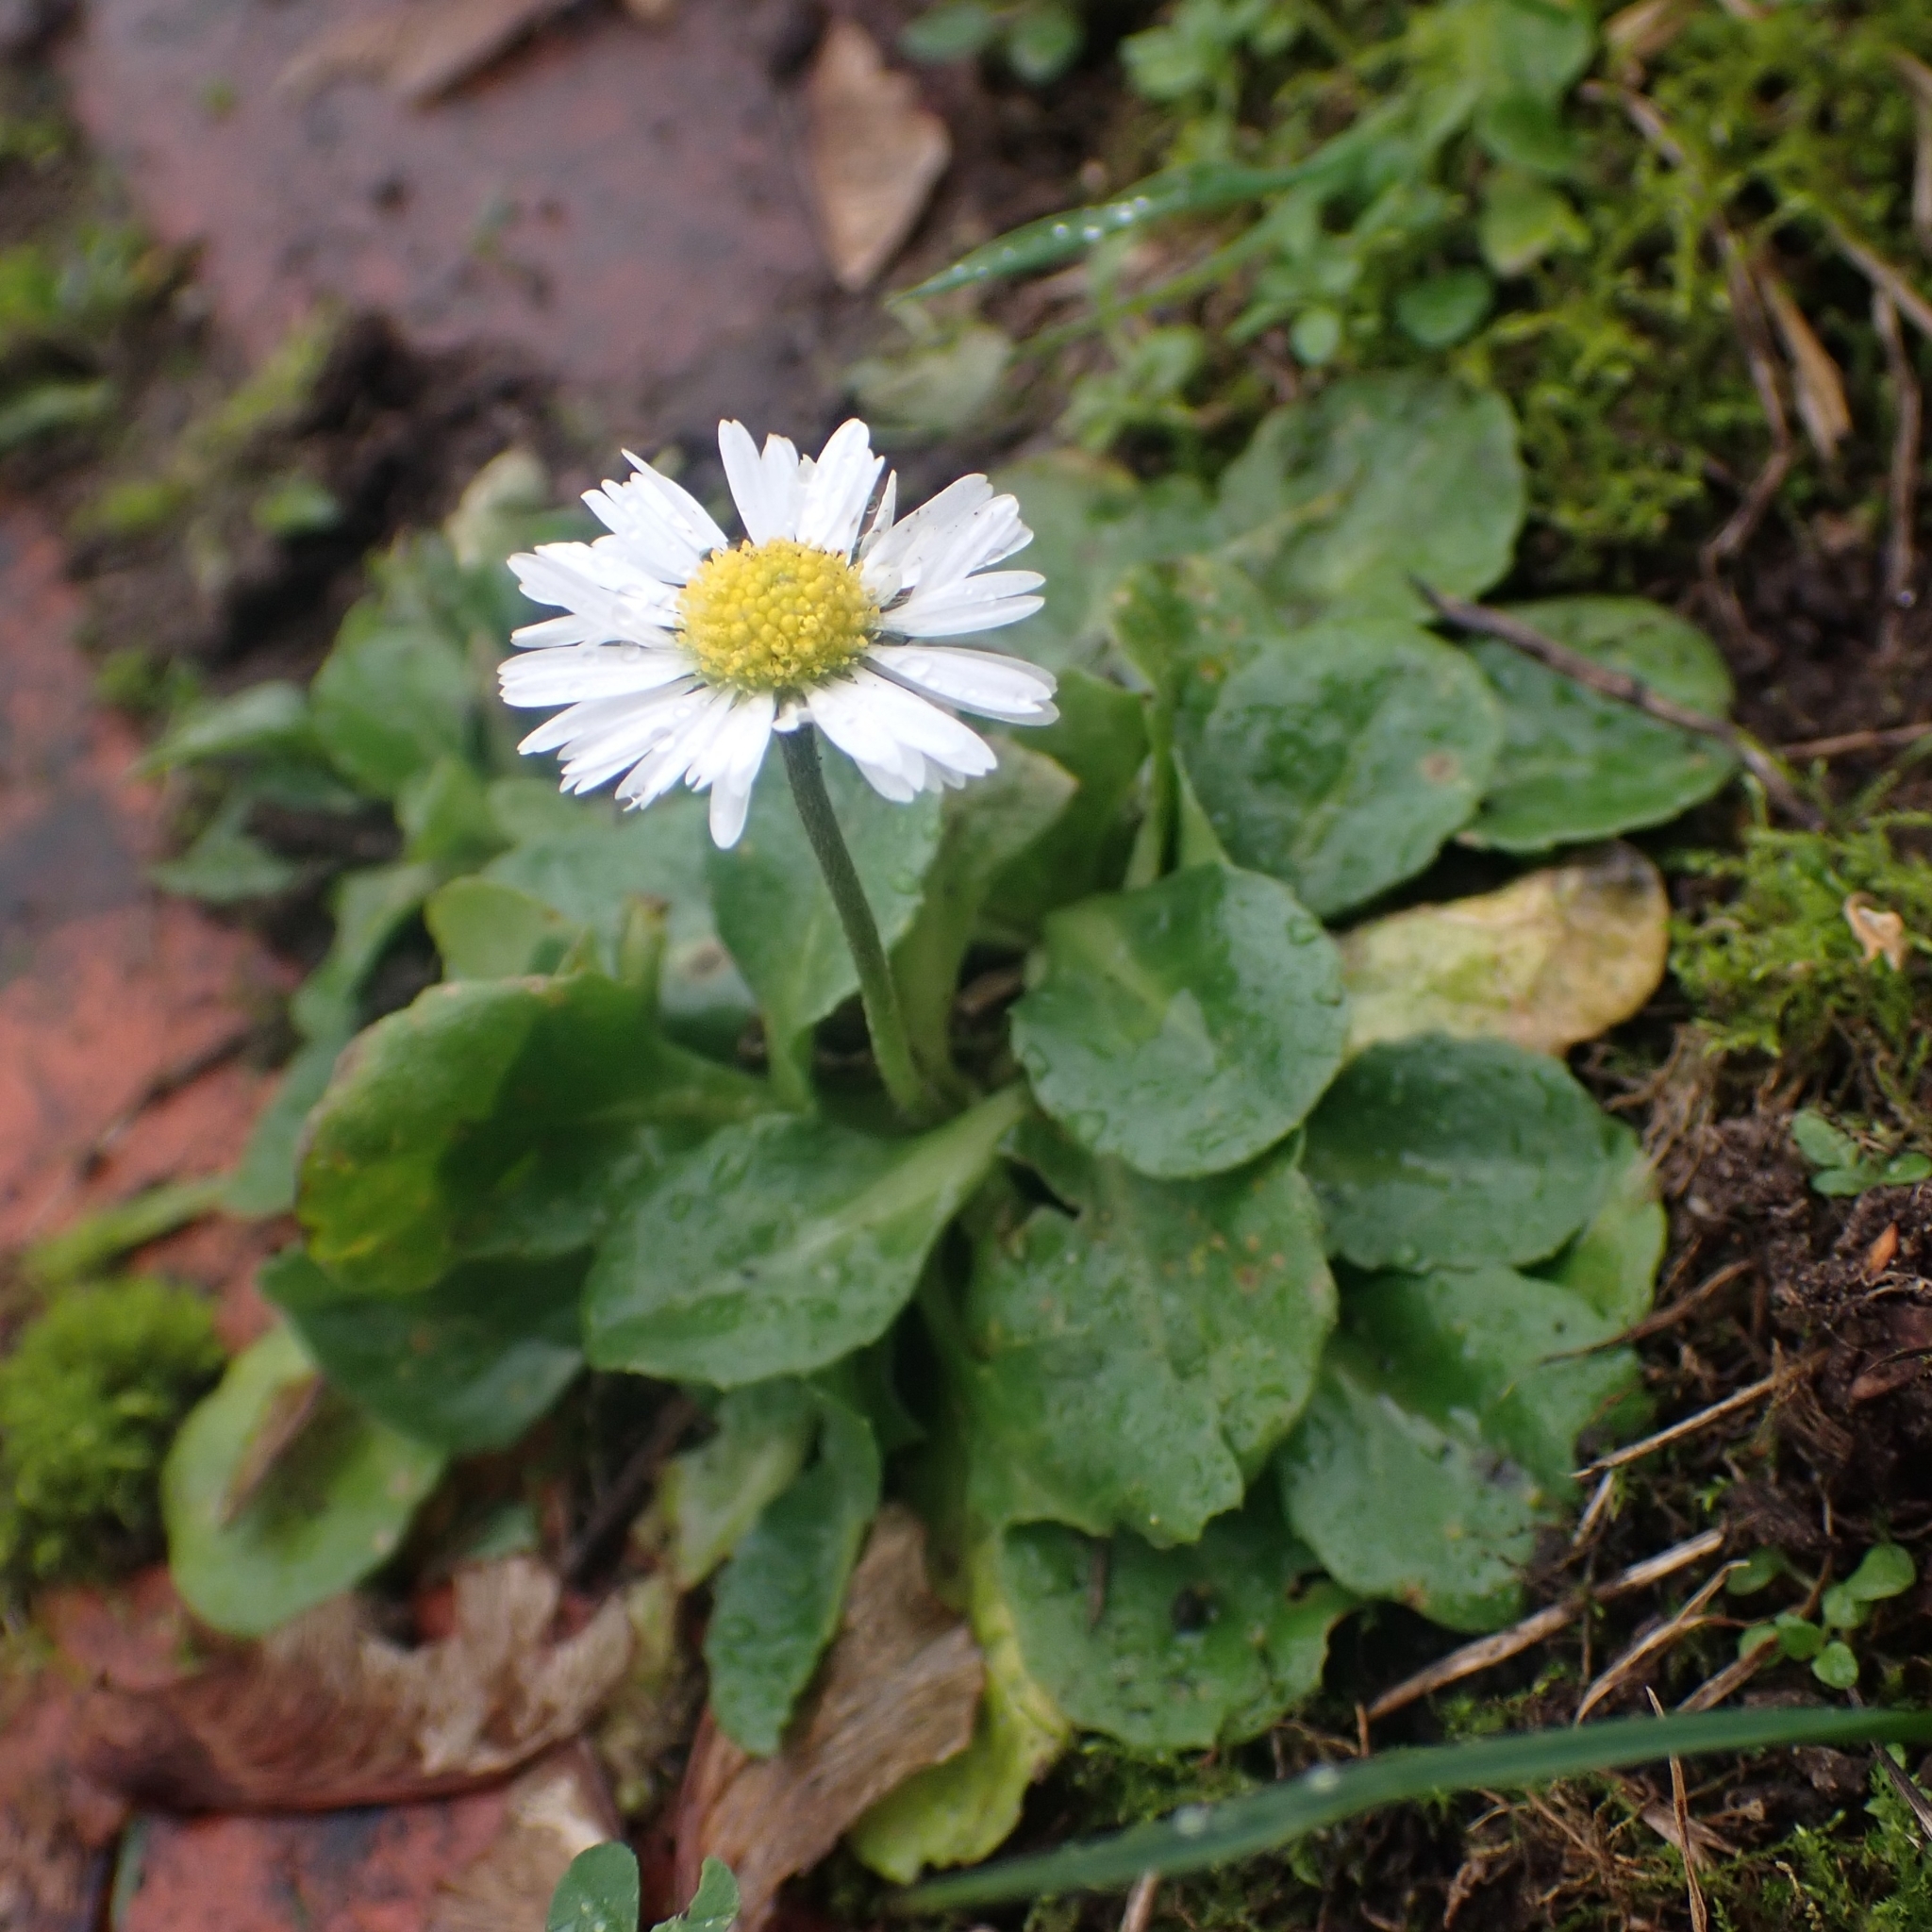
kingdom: Plantae
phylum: Tracheophyta
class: Magnoliopsida
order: Asterales
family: Asteraceae
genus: Bellis
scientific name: Bellis perennis
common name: Lawndaisy
